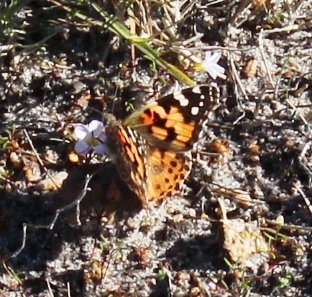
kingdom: Animalia
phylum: Arthropoda
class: Insecta
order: Lepidoptera
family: Nymphalidae
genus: Vanessa
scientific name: Vanessa cardui
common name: Painted lady
